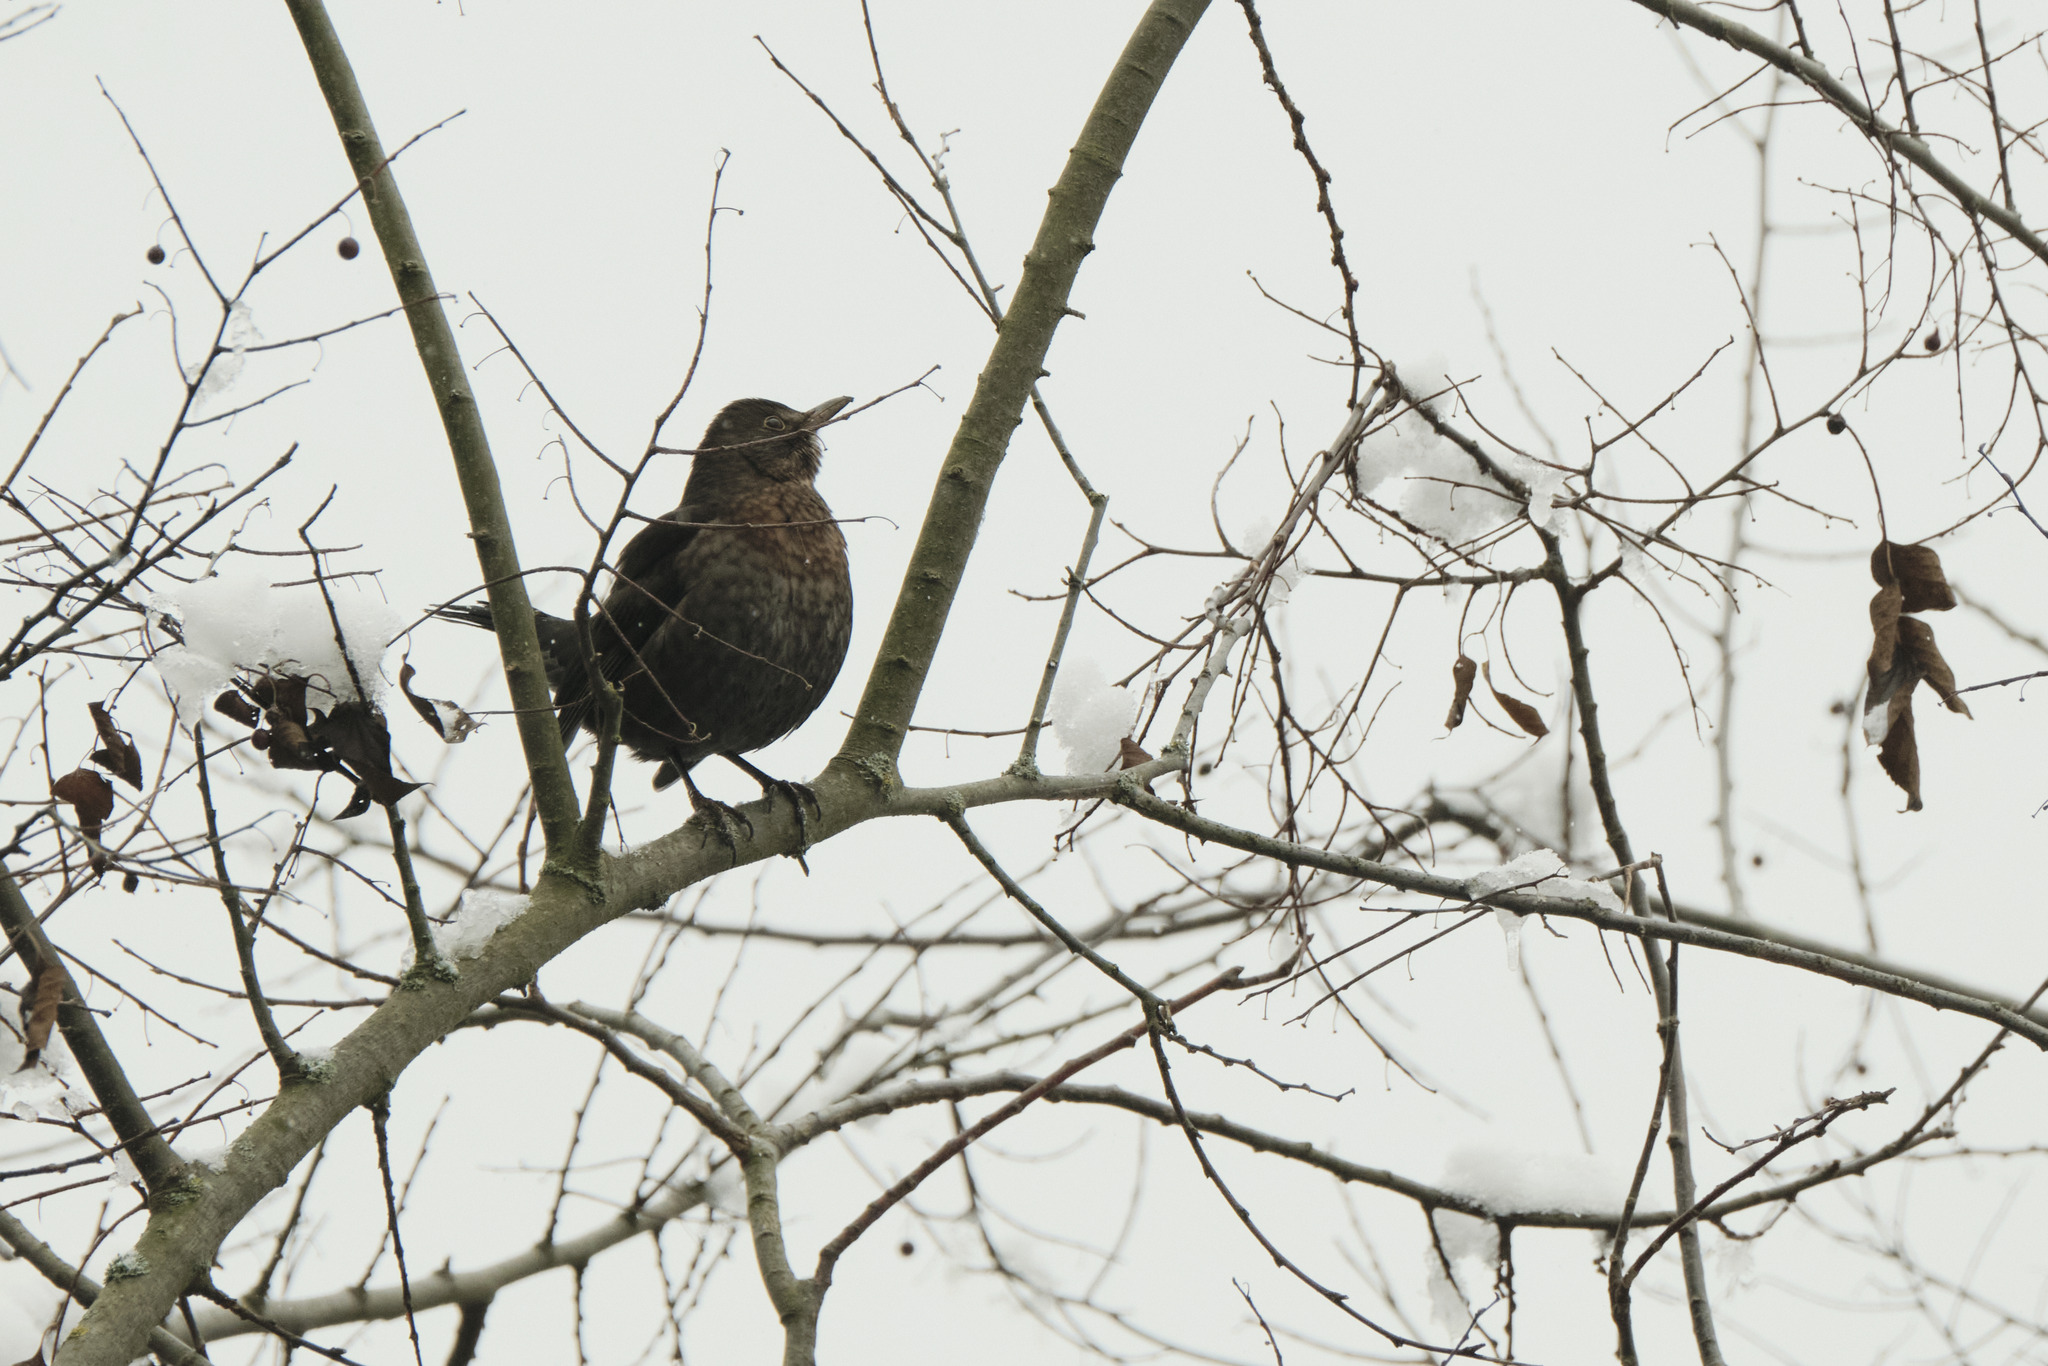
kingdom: Animalia
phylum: Chordata
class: Aves
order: Passeriformes
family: Turdidae
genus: Turdus
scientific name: Turdus merula
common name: Common blackbird
